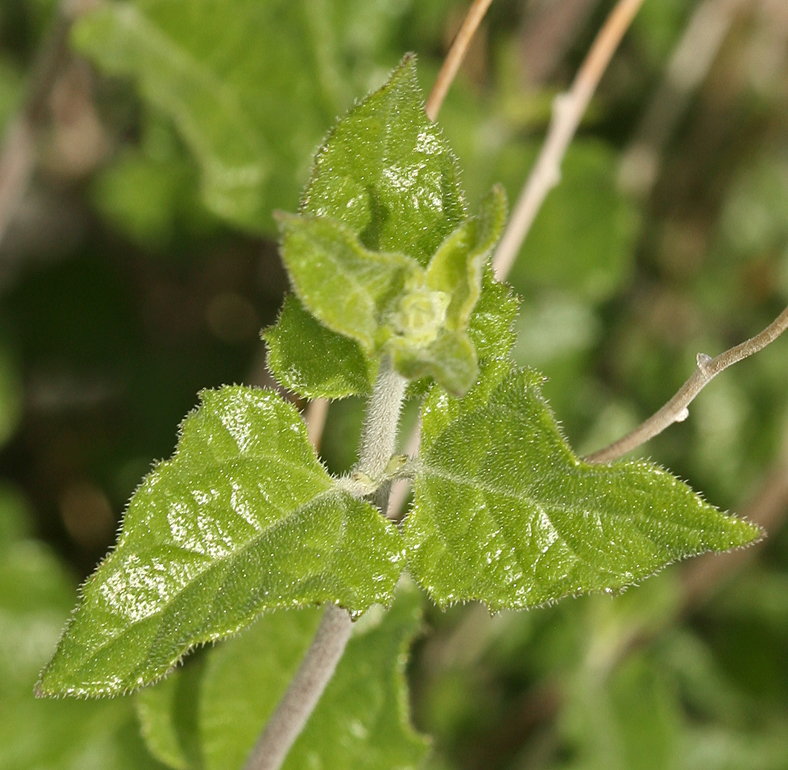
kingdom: Plantae
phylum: Tracheophyta
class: Magnoliopsida
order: Asterales
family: Asteraceae
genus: Bahiopsis
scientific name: Bahiopsis parishii
